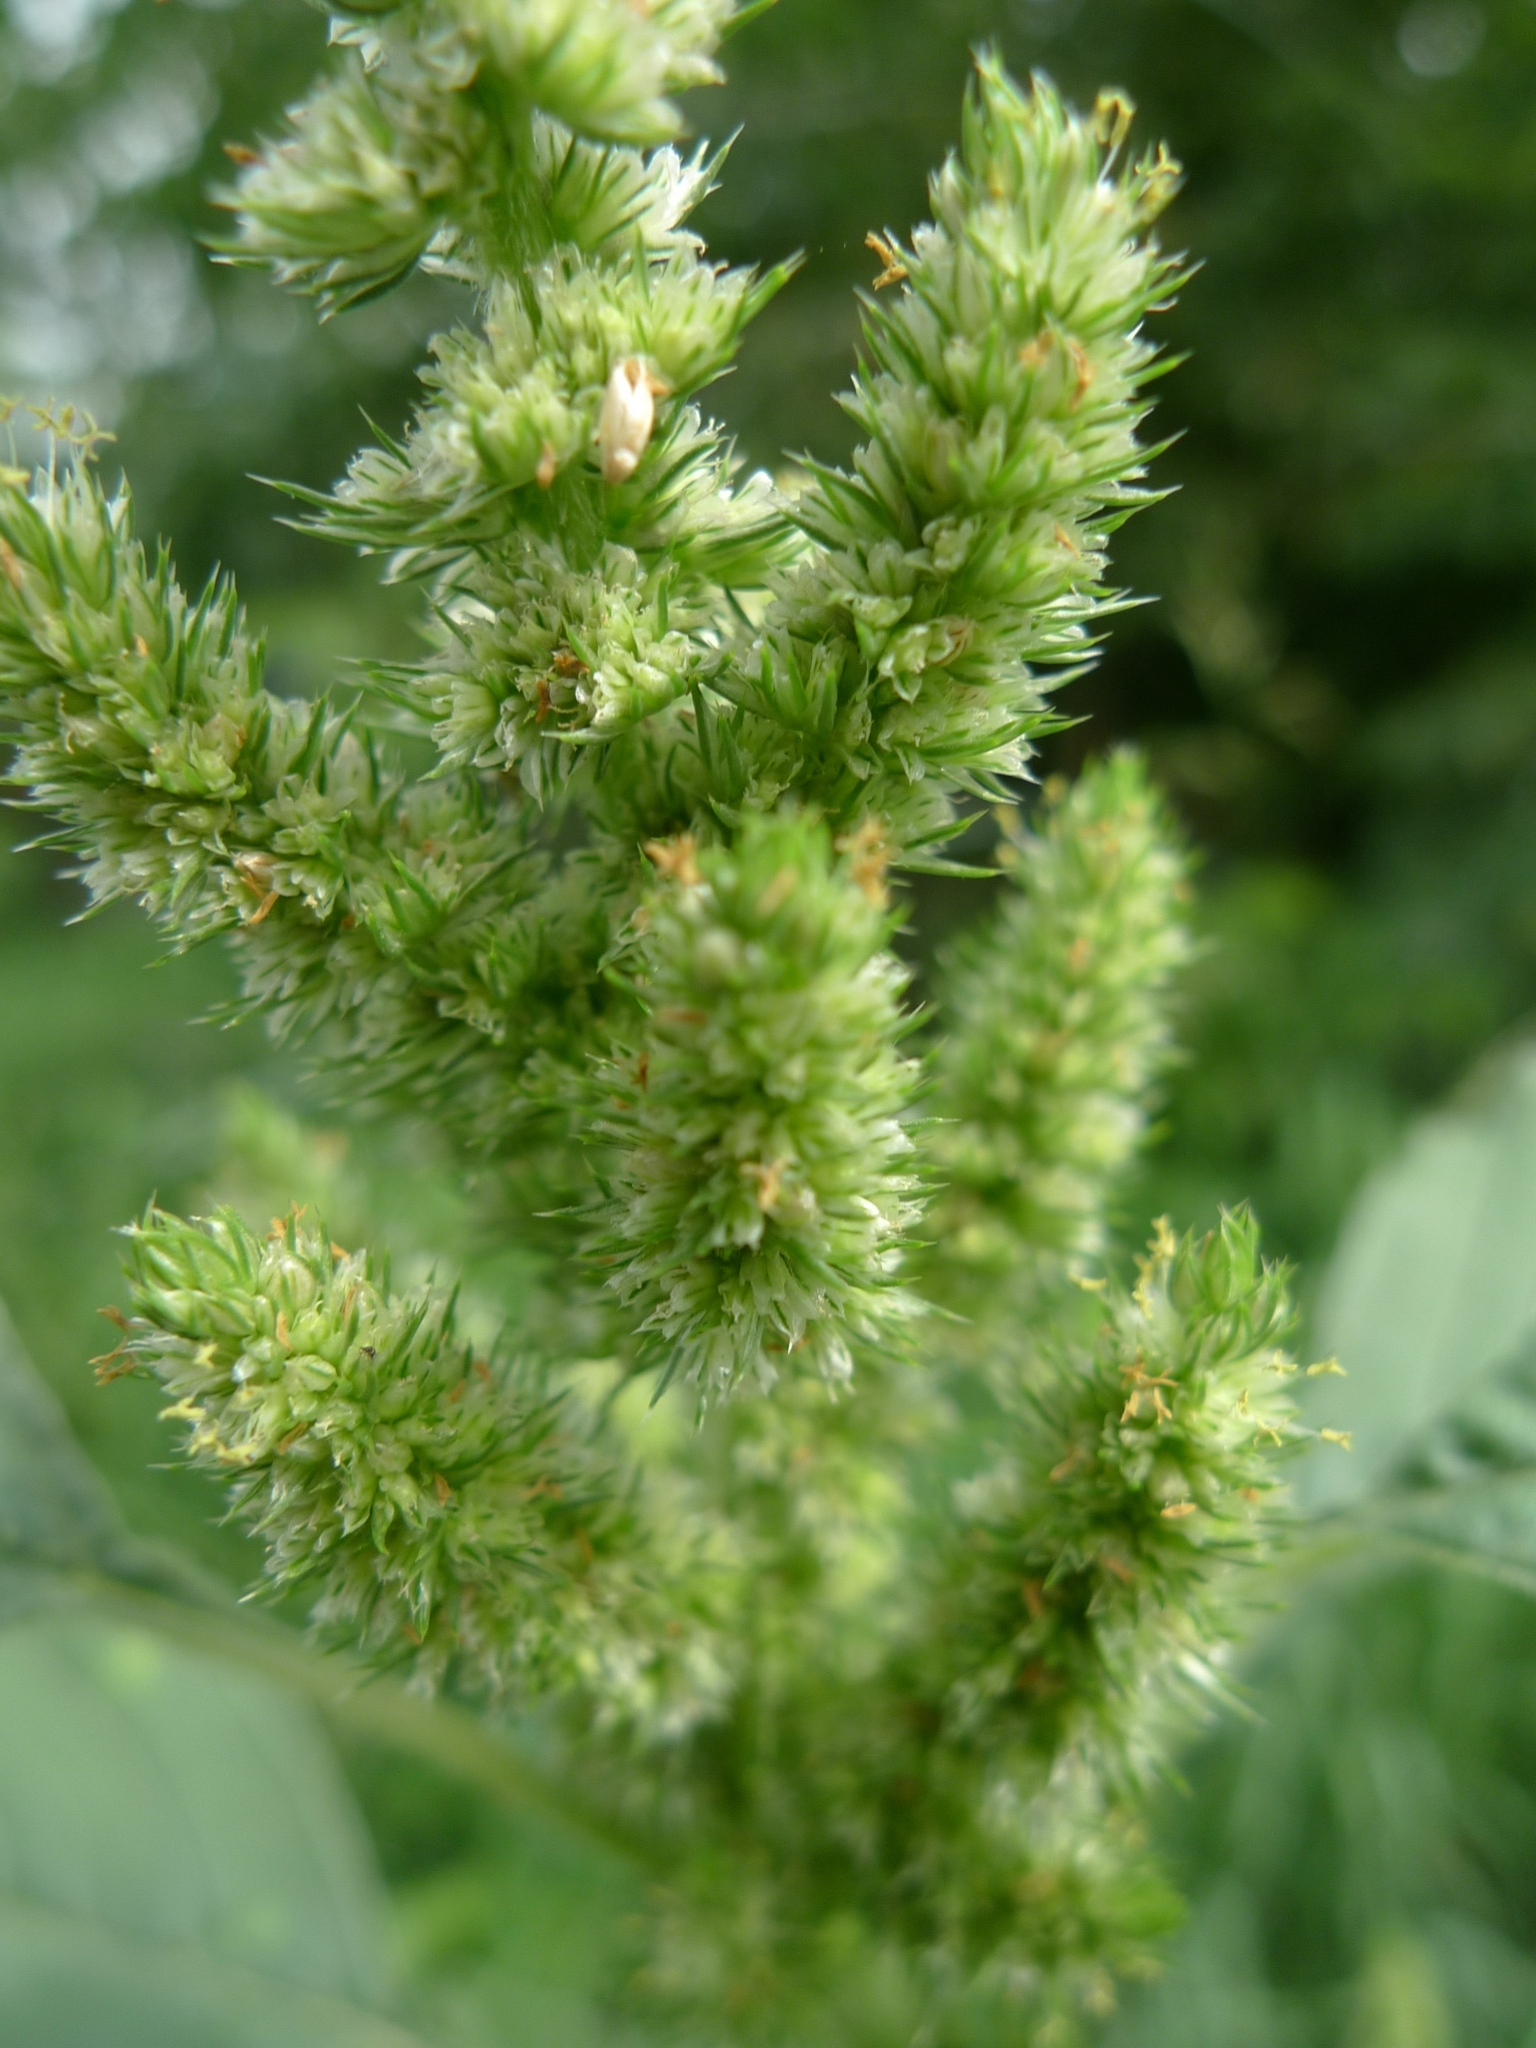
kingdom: Plantae
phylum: Tracheophyta
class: Magnoliopsida
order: Caryophyllales
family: Amaranthaceae
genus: Amaranthus
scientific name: Amaranthus retroflexus
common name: Redroot amaranth
